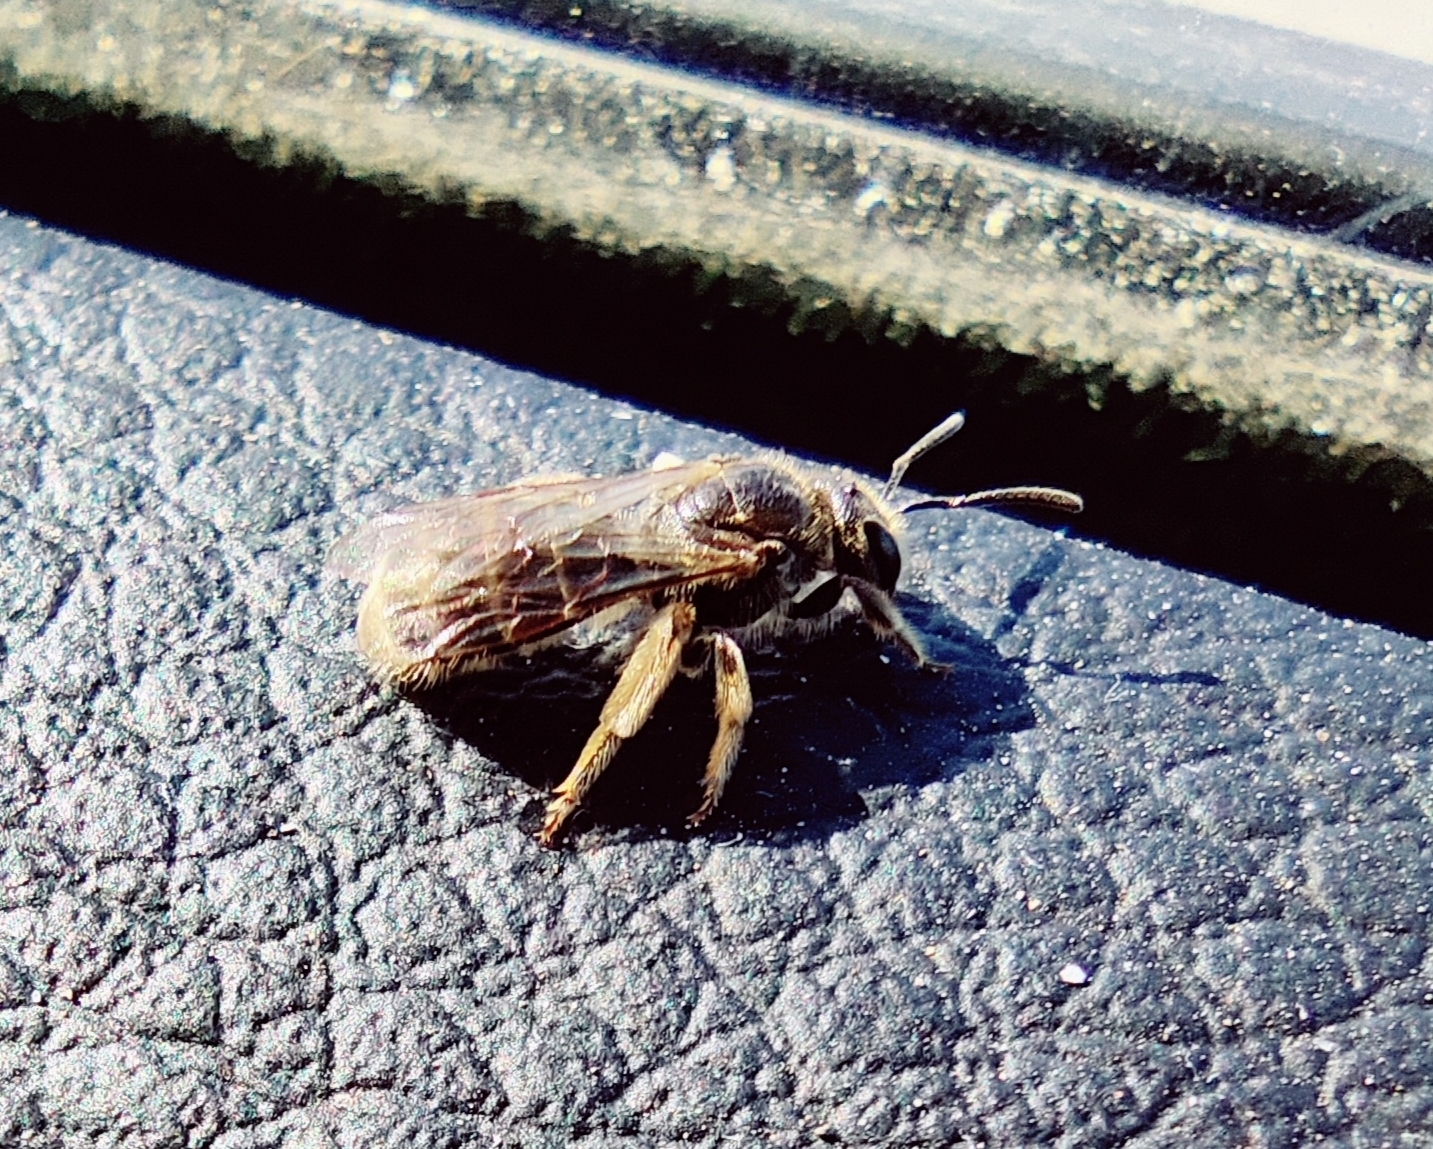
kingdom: Animalia
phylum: Arthropoda
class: Insecta
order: Hymenoptera
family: Halictidae
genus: Lasioglossum
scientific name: Lasioglossum marginatum
